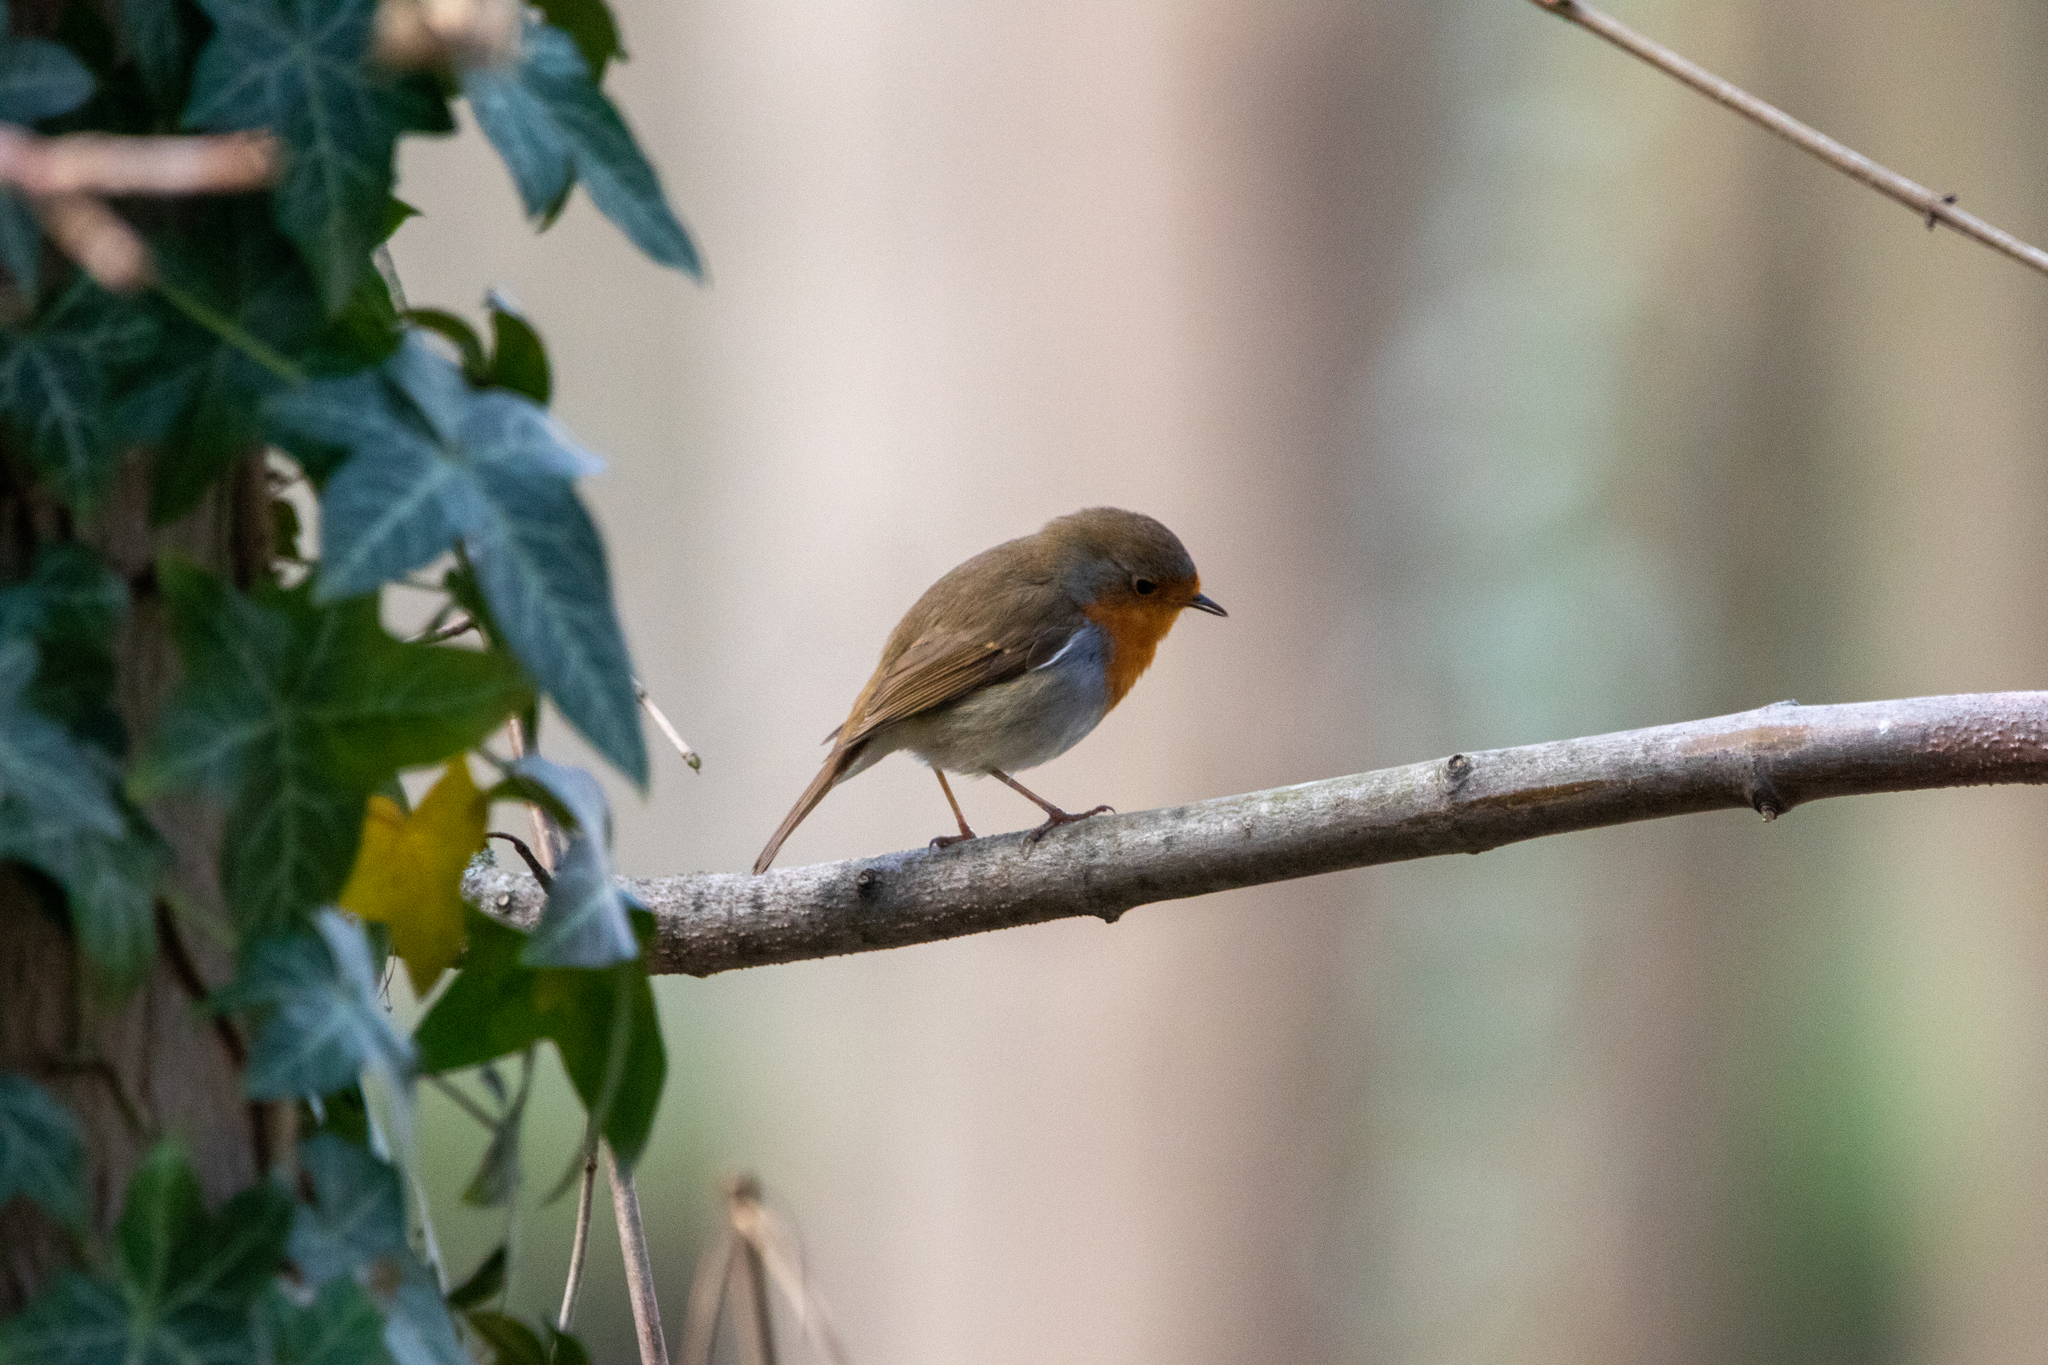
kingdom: Animalia
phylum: Chordata
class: Aves
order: Passeriformes
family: Muscicapidae
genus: Erithacus
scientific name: Erithacus rubecula
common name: European robin
